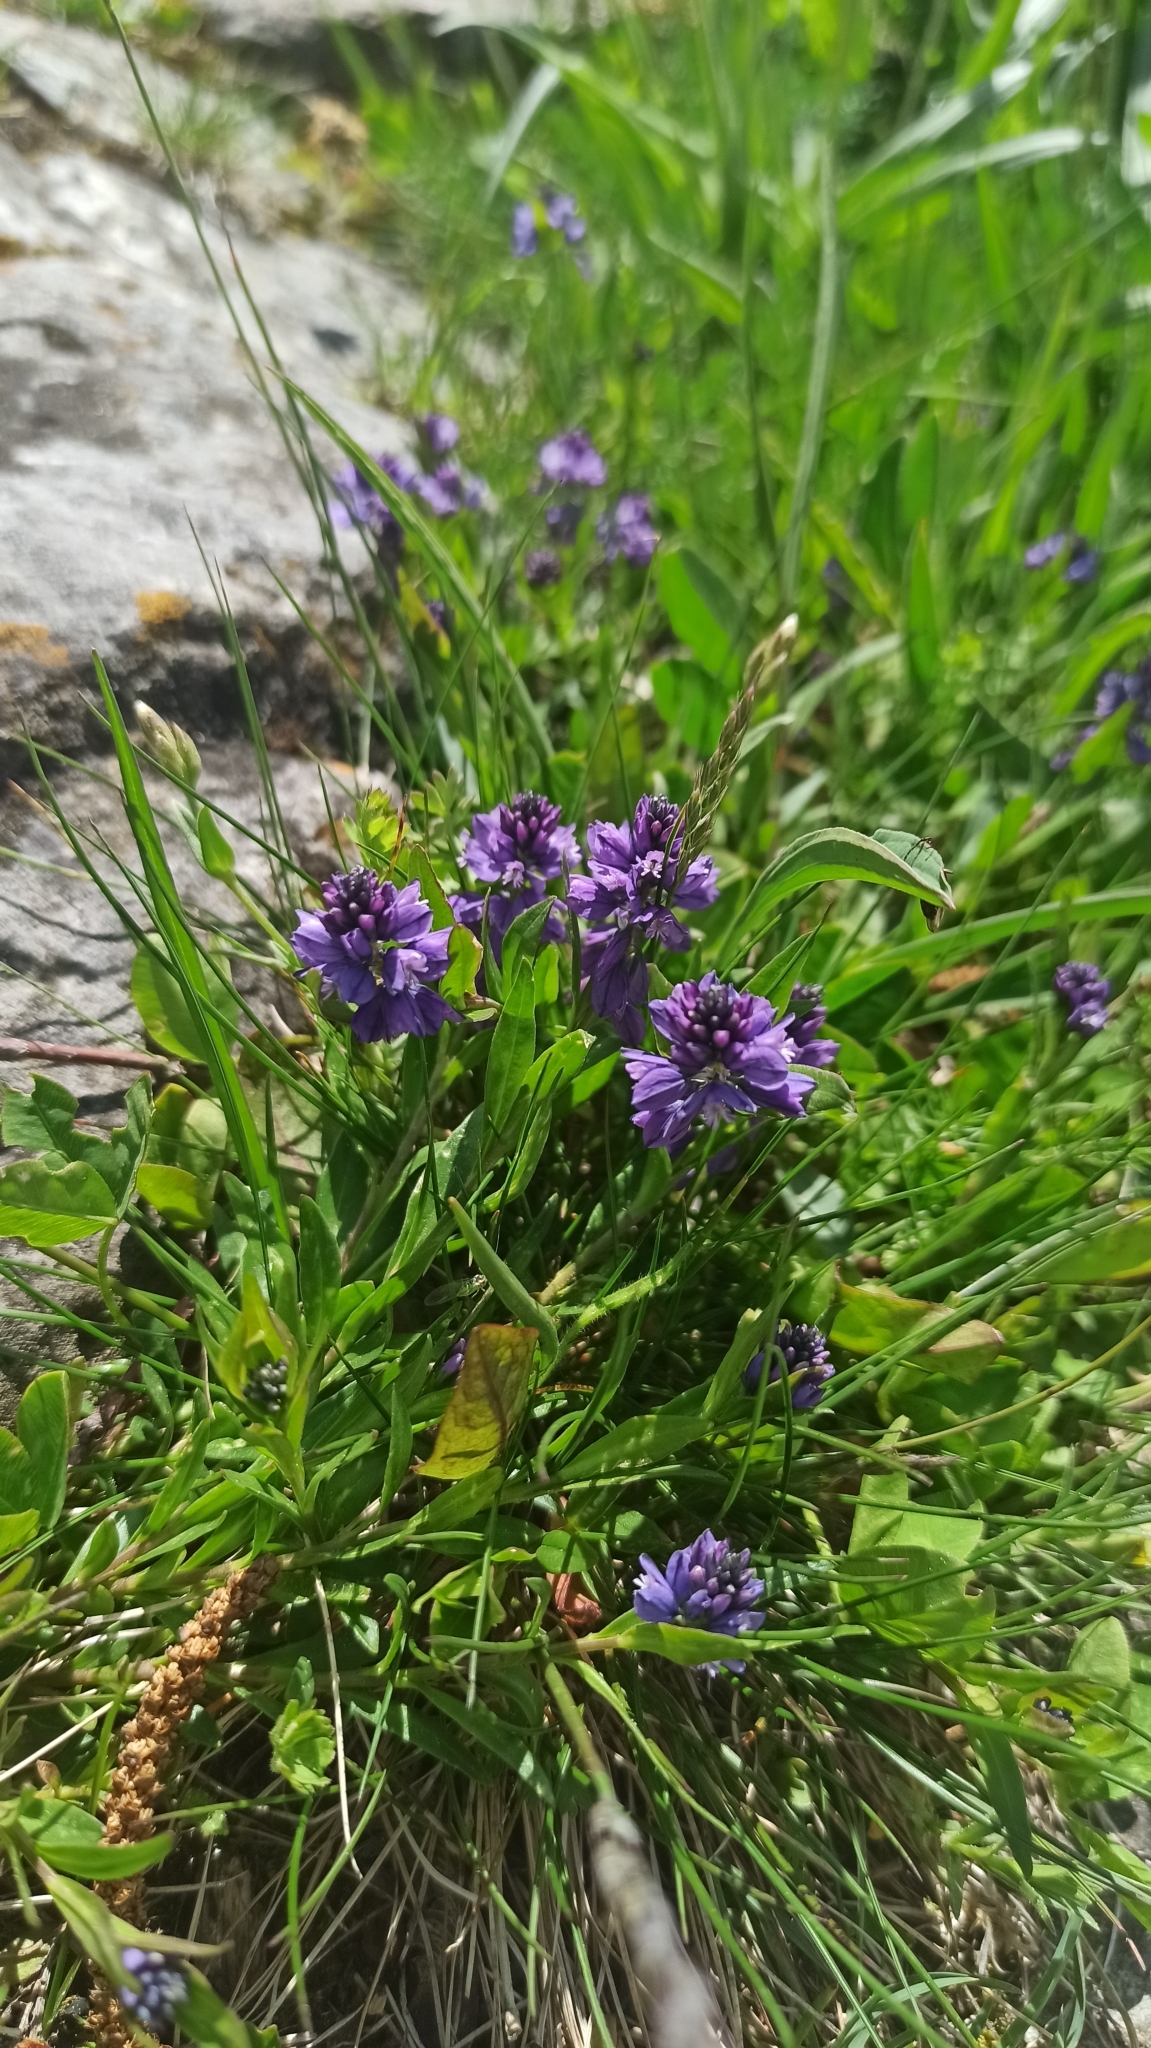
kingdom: Plantae
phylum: Tracheophyta
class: Magnoliopsida
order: Fabales
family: Polygalaceae
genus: Polygala
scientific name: Polygala caucasica
